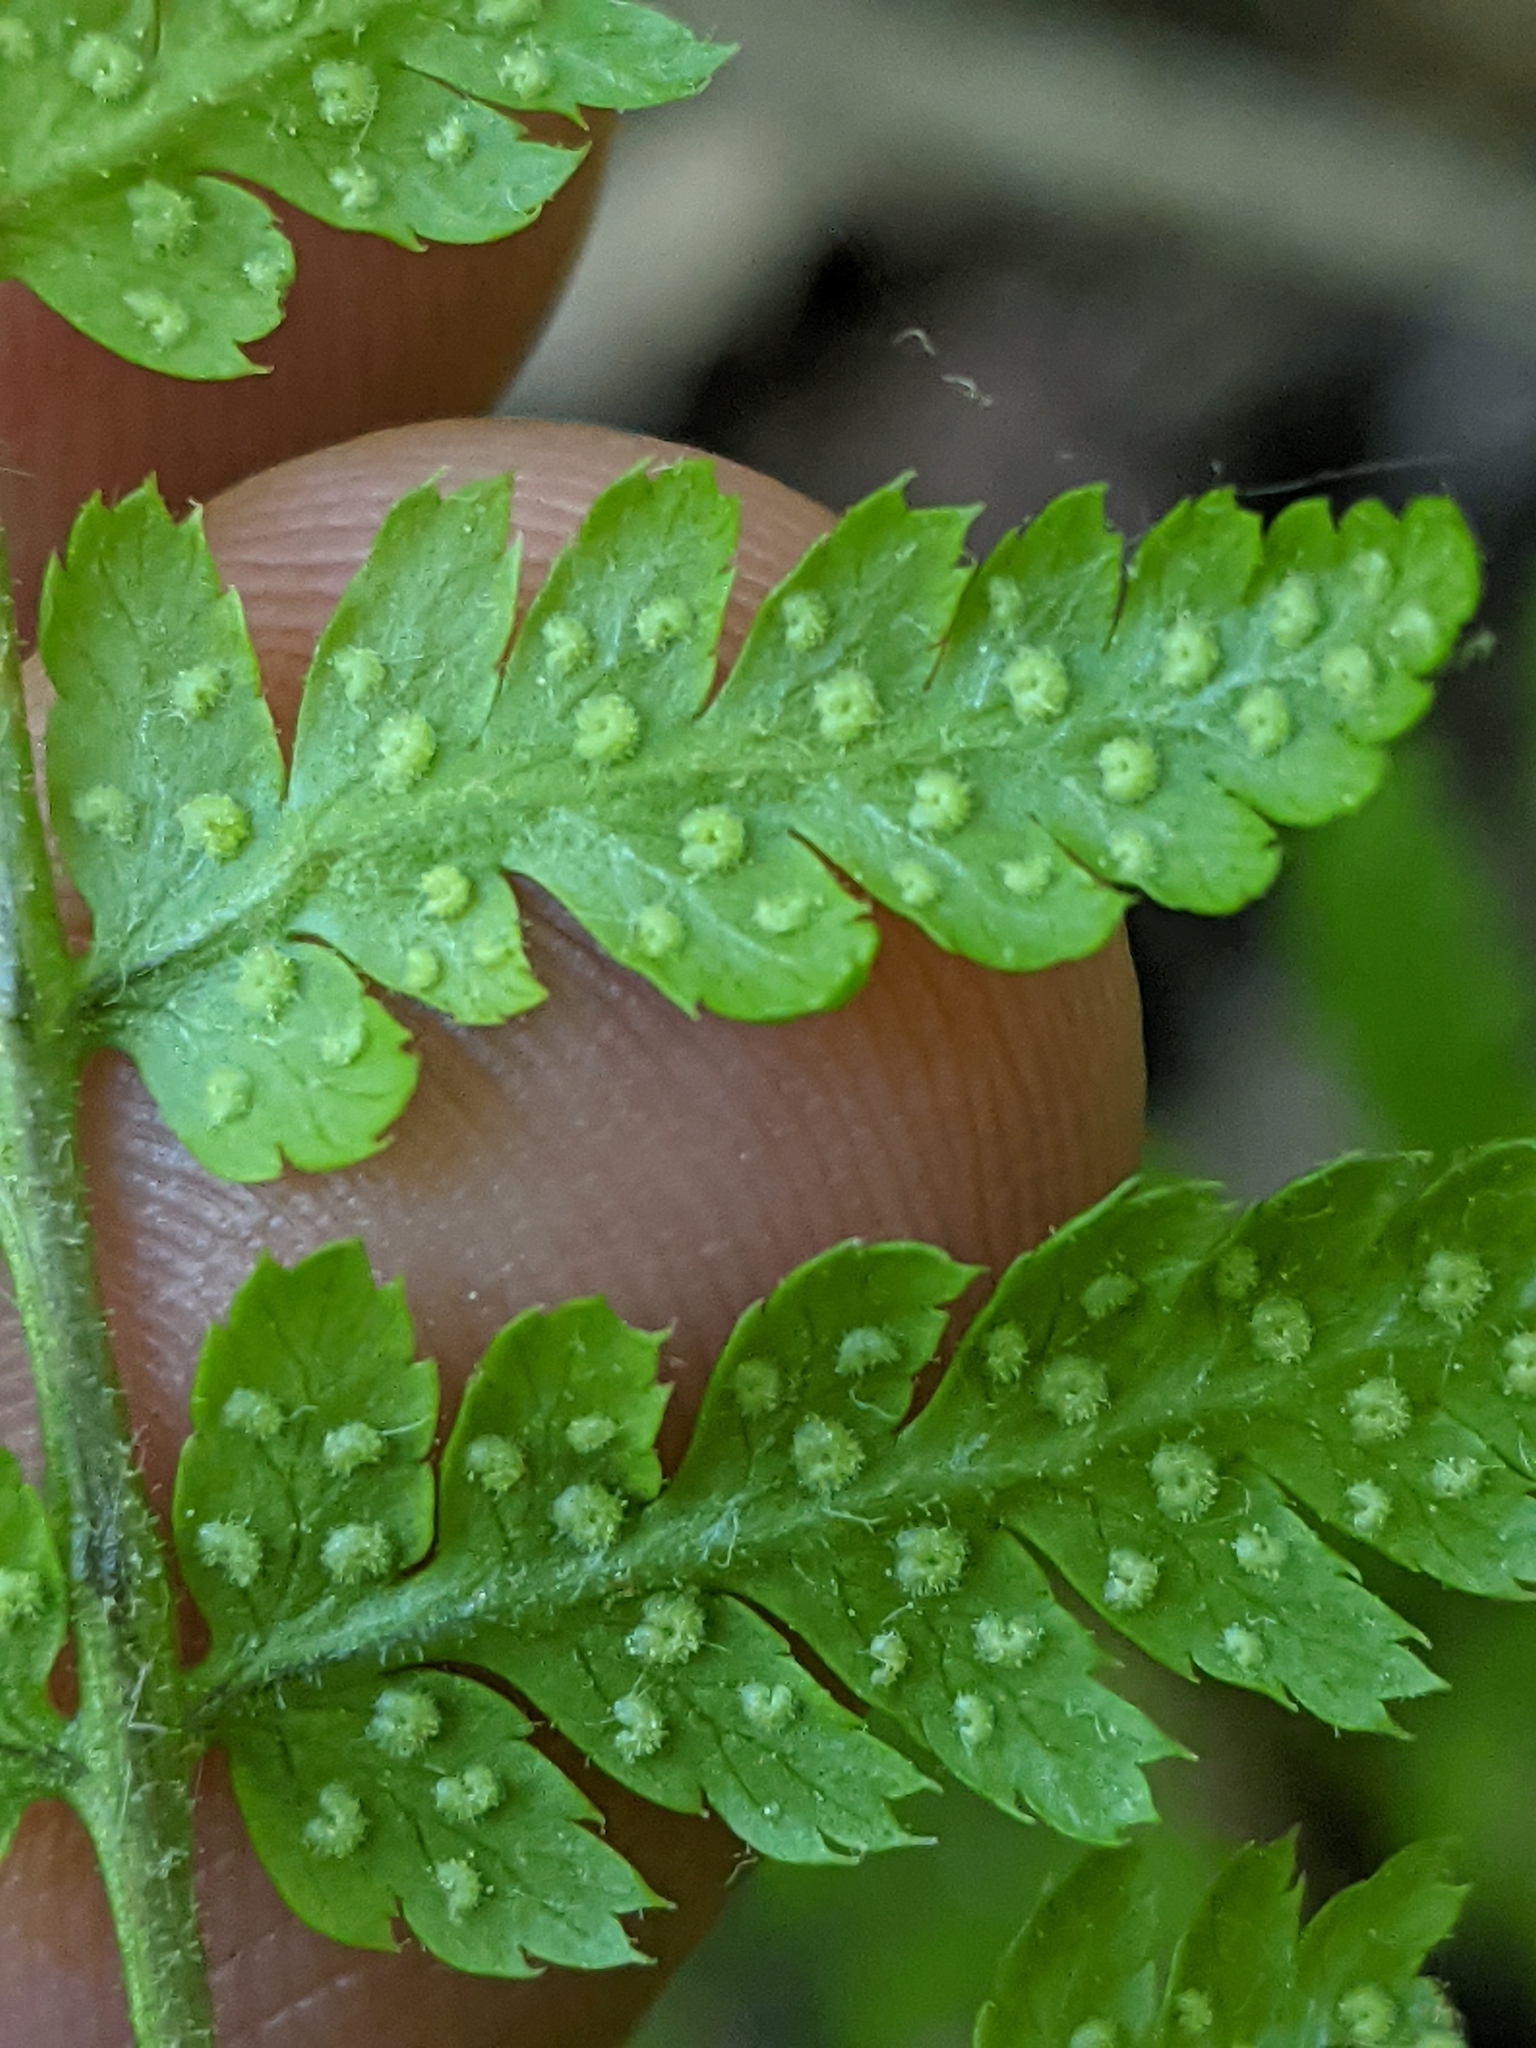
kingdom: Plantae
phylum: Tracheophyta
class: Polypodiopsida
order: Polypodiales
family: Dryopteridaceae
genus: Dryopteris
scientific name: Dryopteris intermedia
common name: Evergreen wood fern
